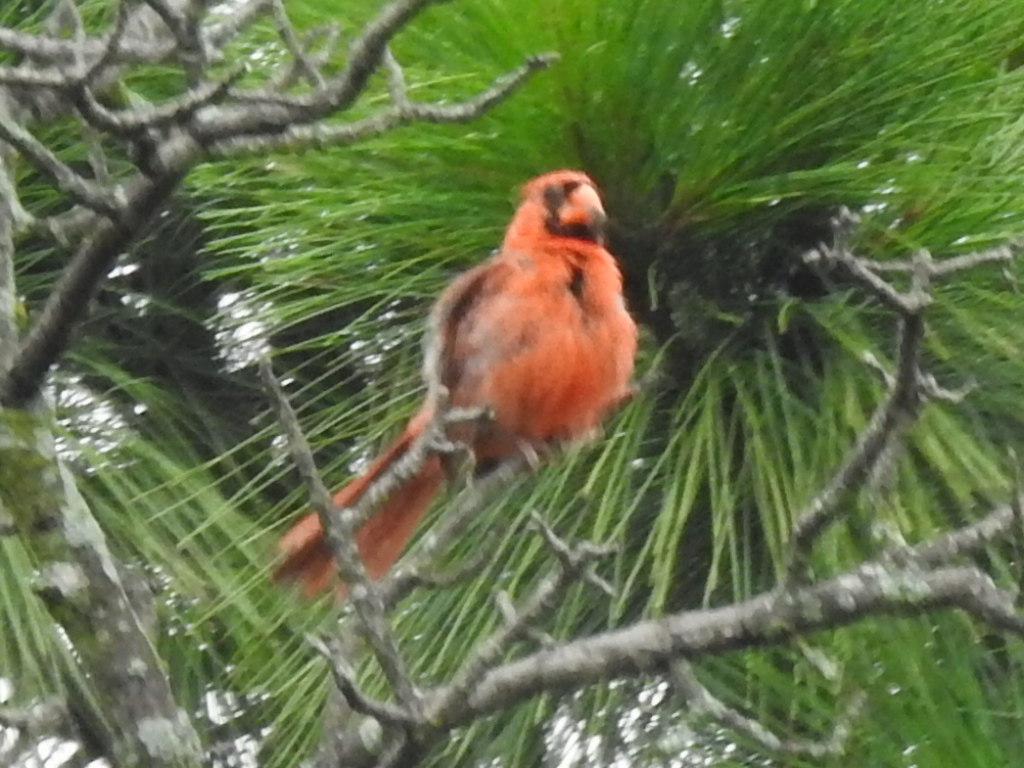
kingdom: Animalia
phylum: Chordata
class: Aves
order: Passeriformes
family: Cardinalidae
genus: Cardinalis
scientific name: Cardinalis cardinalis
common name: Northern cardinal
